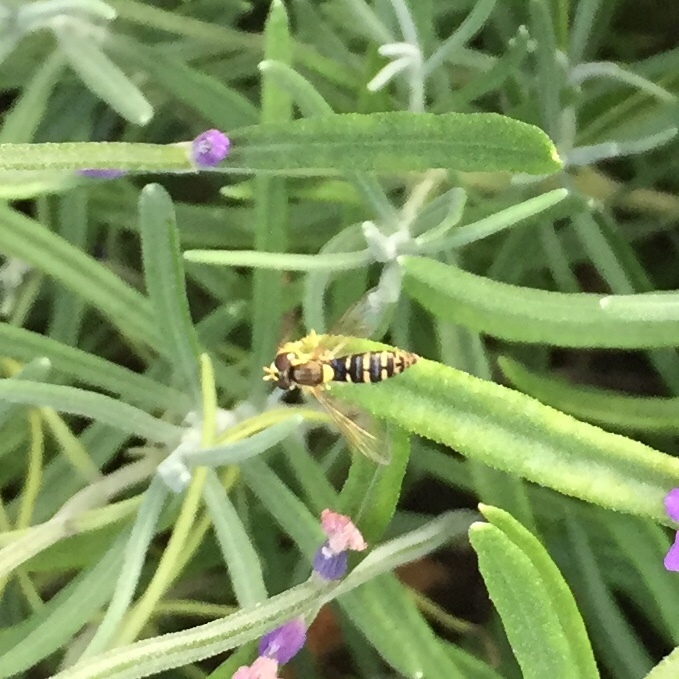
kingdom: Animalia
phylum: Arthropoda
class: Insecta
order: Diptera
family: Syrphidae
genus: Sphaerophoria
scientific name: Sphaerophoria
